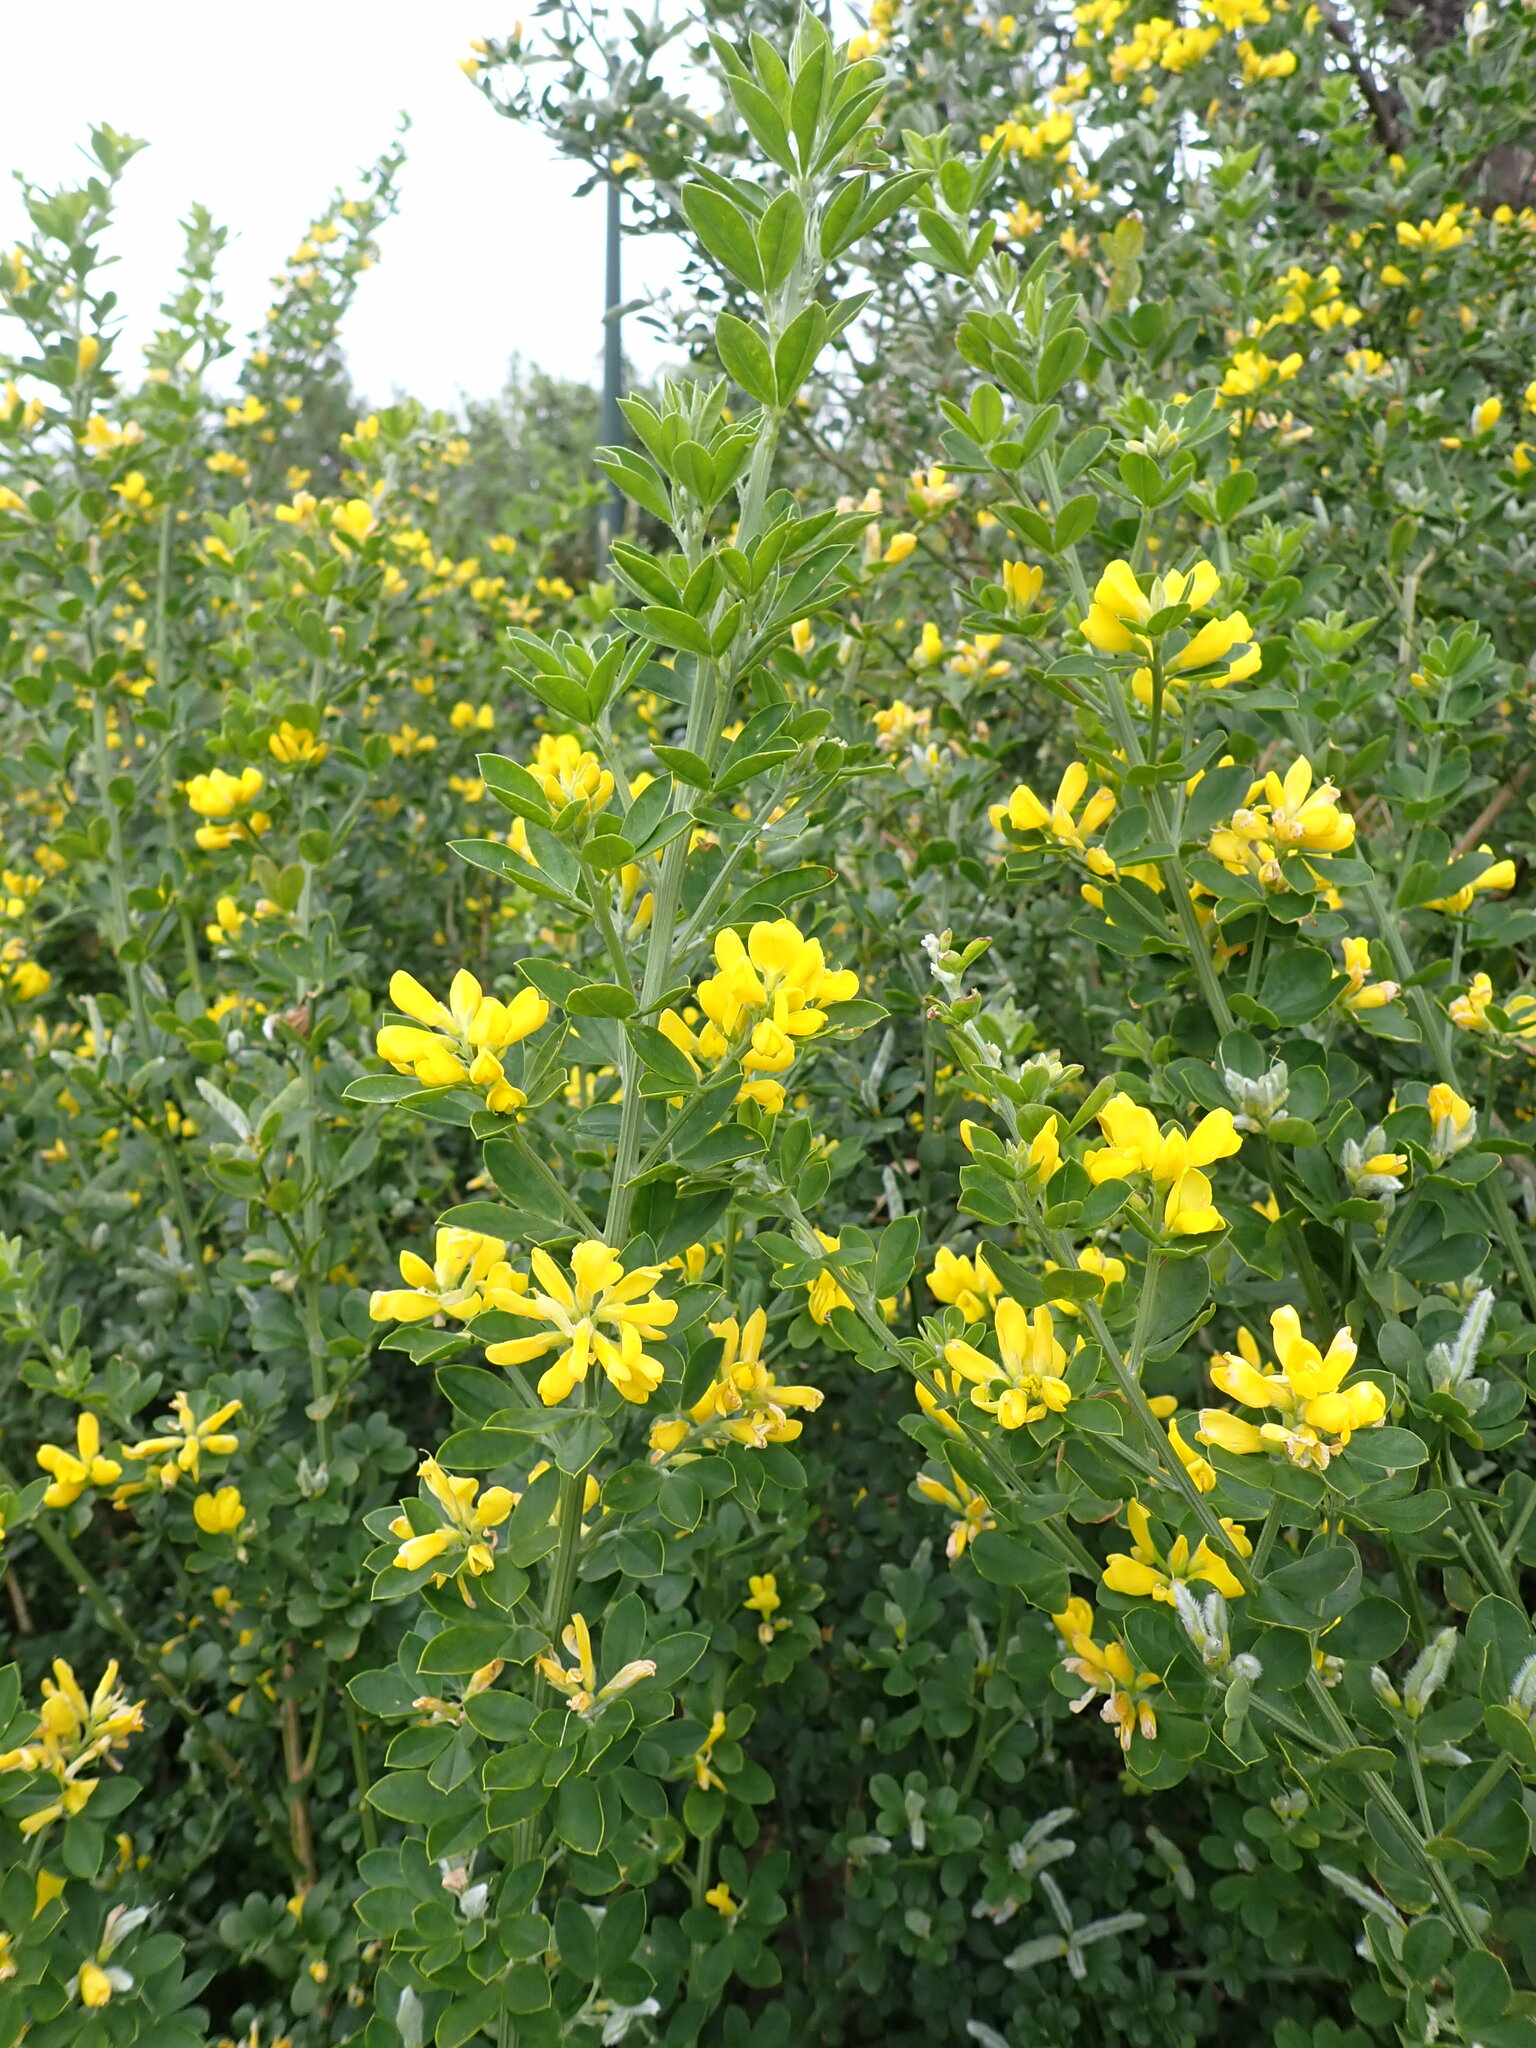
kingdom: Plantae
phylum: Tracheophyta
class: Magnoliopsida
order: Fabales
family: Fabaceae
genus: Genista
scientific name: Genista monspessulana
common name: Montpellier broom
